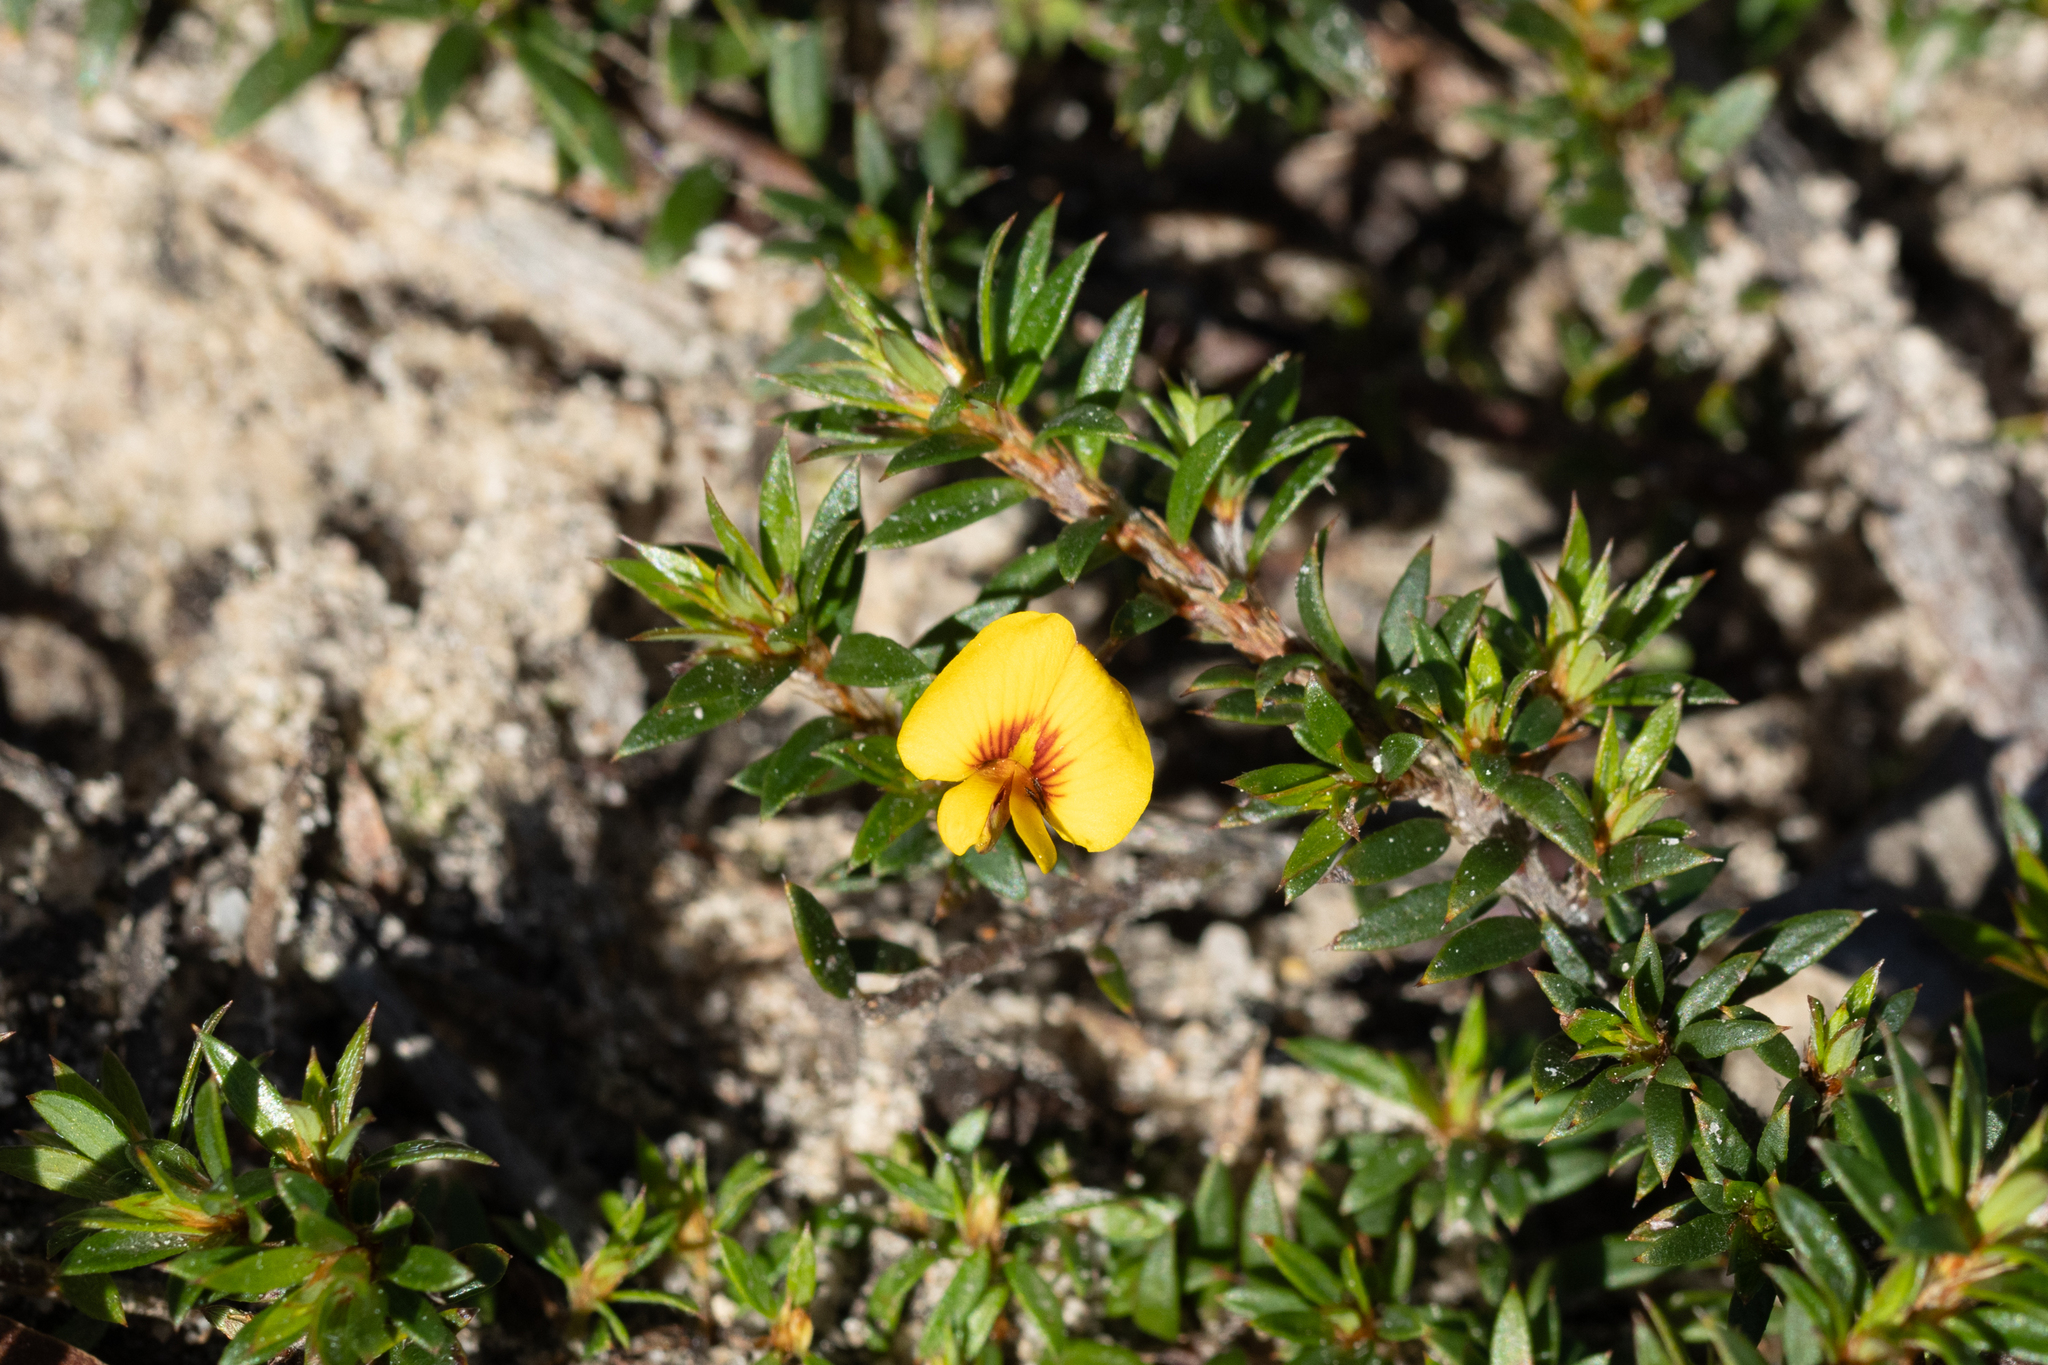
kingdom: Plantae
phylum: Tracheophyta
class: Magnoliopsida
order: Fabales
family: Fabaceae
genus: Pultenaea
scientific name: Pultenaea pedunculata
